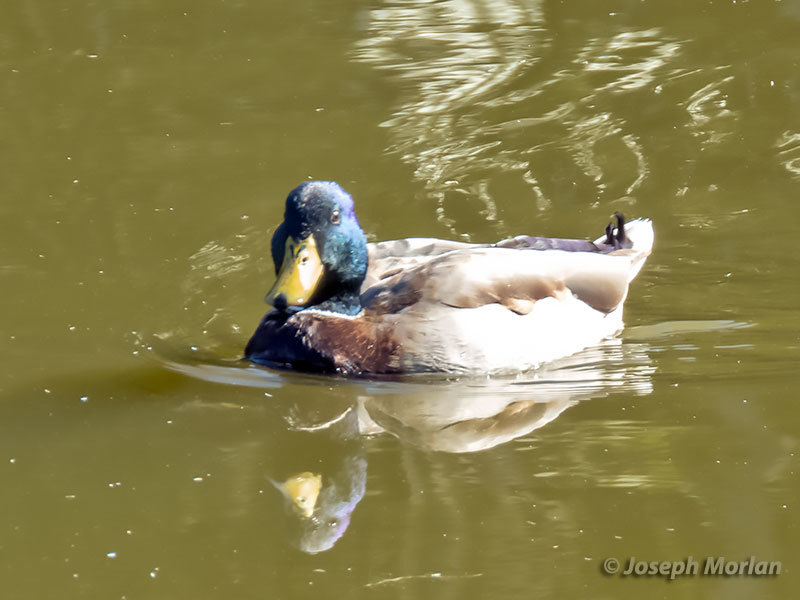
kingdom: Animalia
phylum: Chordata
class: Aves
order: Anseriformes
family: Anatidae
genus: Anas
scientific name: Anas platyrhynchos
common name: Mallard
